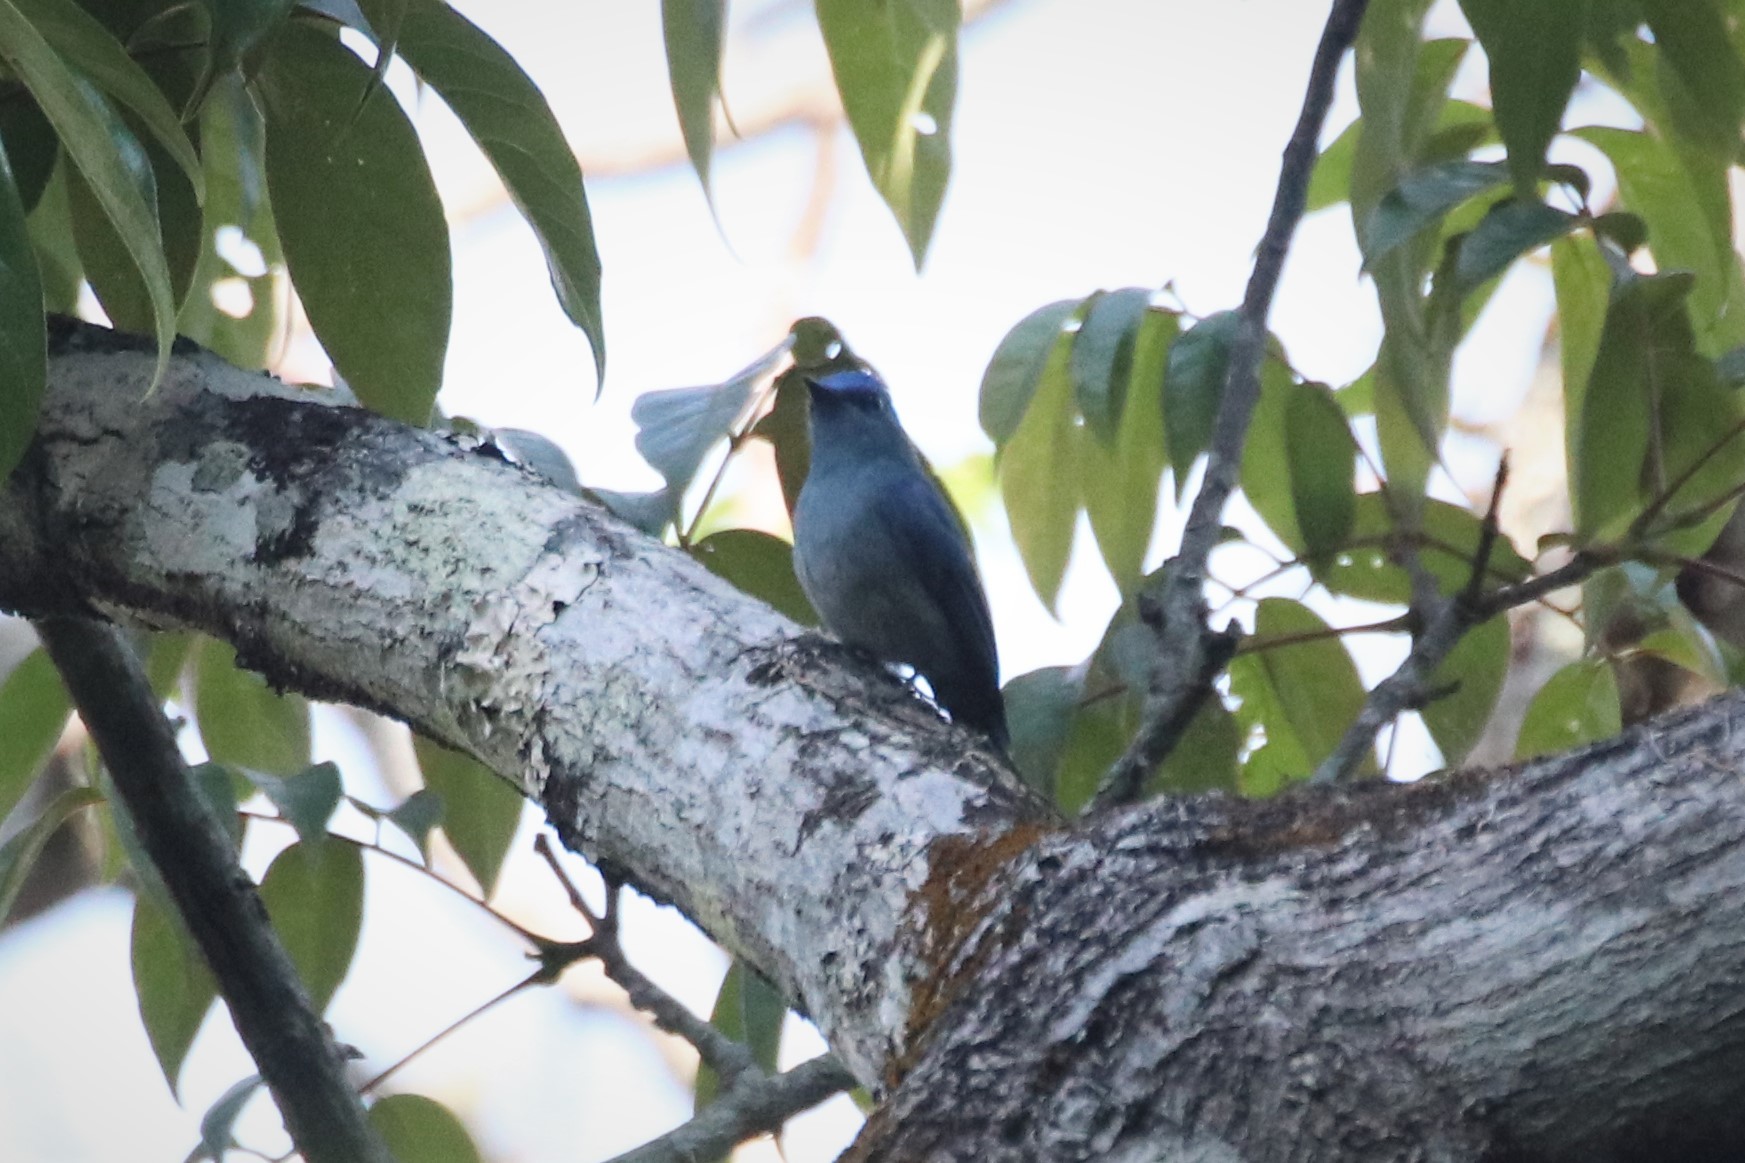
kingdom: Animalia
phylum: Chordata
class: Aves
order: Passeriformes
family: Muscicapidae
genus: Cyornis
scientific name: Cyornis unicolor
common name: Pale blue flycatcher
